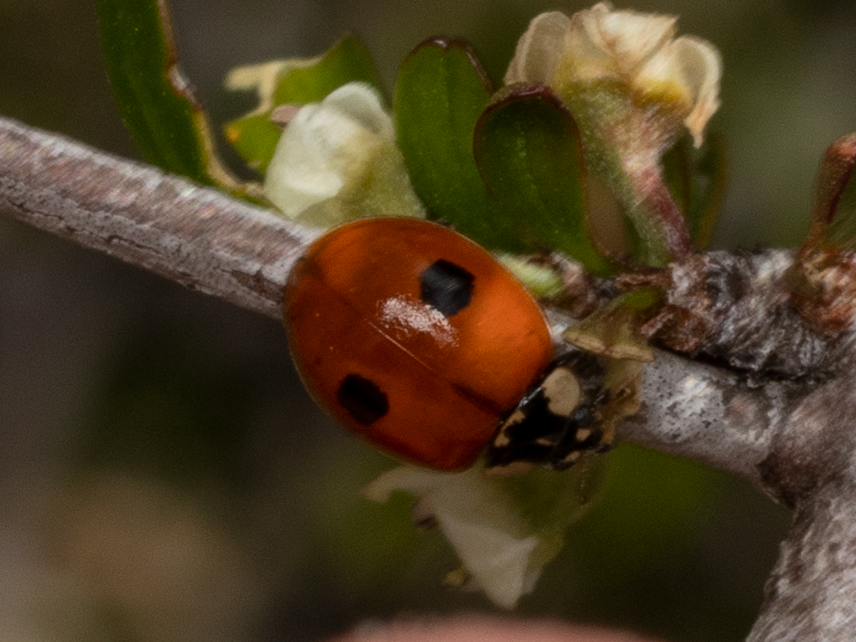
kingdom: Animalia
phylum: Arthropoda
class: Insecta
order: Coleoptera
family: Coccinellidae
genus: Adalia
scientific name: Adalia bipunctata
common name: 2-spot ladybird
